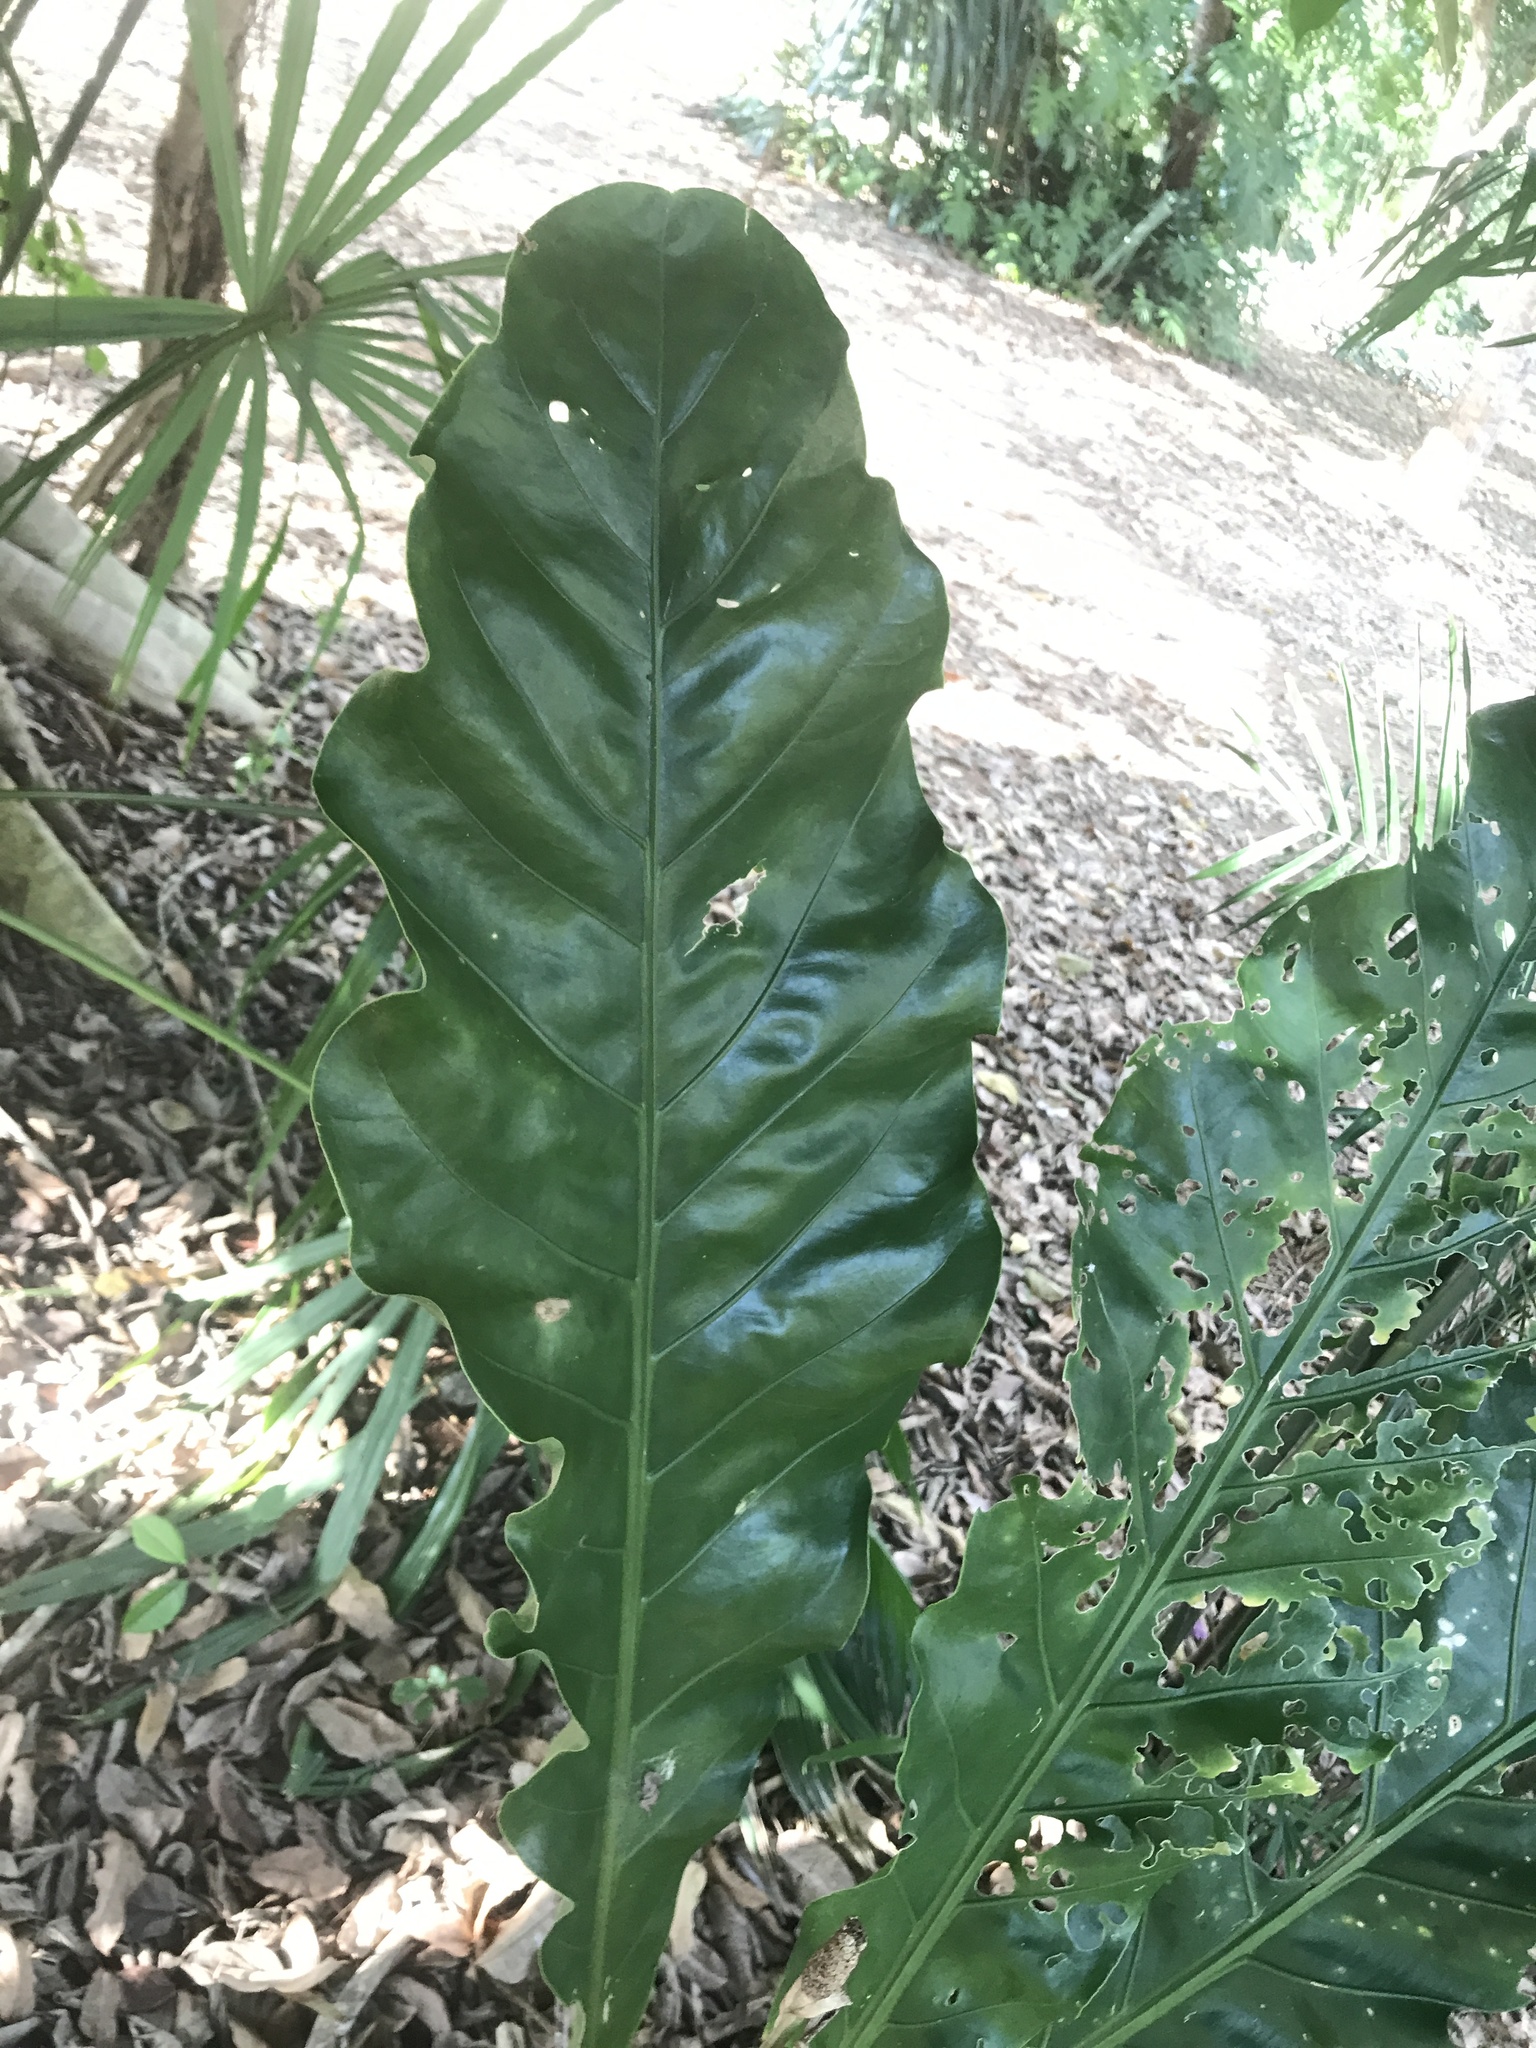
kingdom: Plantae
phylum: Tracheophyta
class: Liliopsida
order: Alismatales
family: Araceae
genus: Anthurium
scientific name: Anthurium schlechtendalii
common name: Laceleaf
